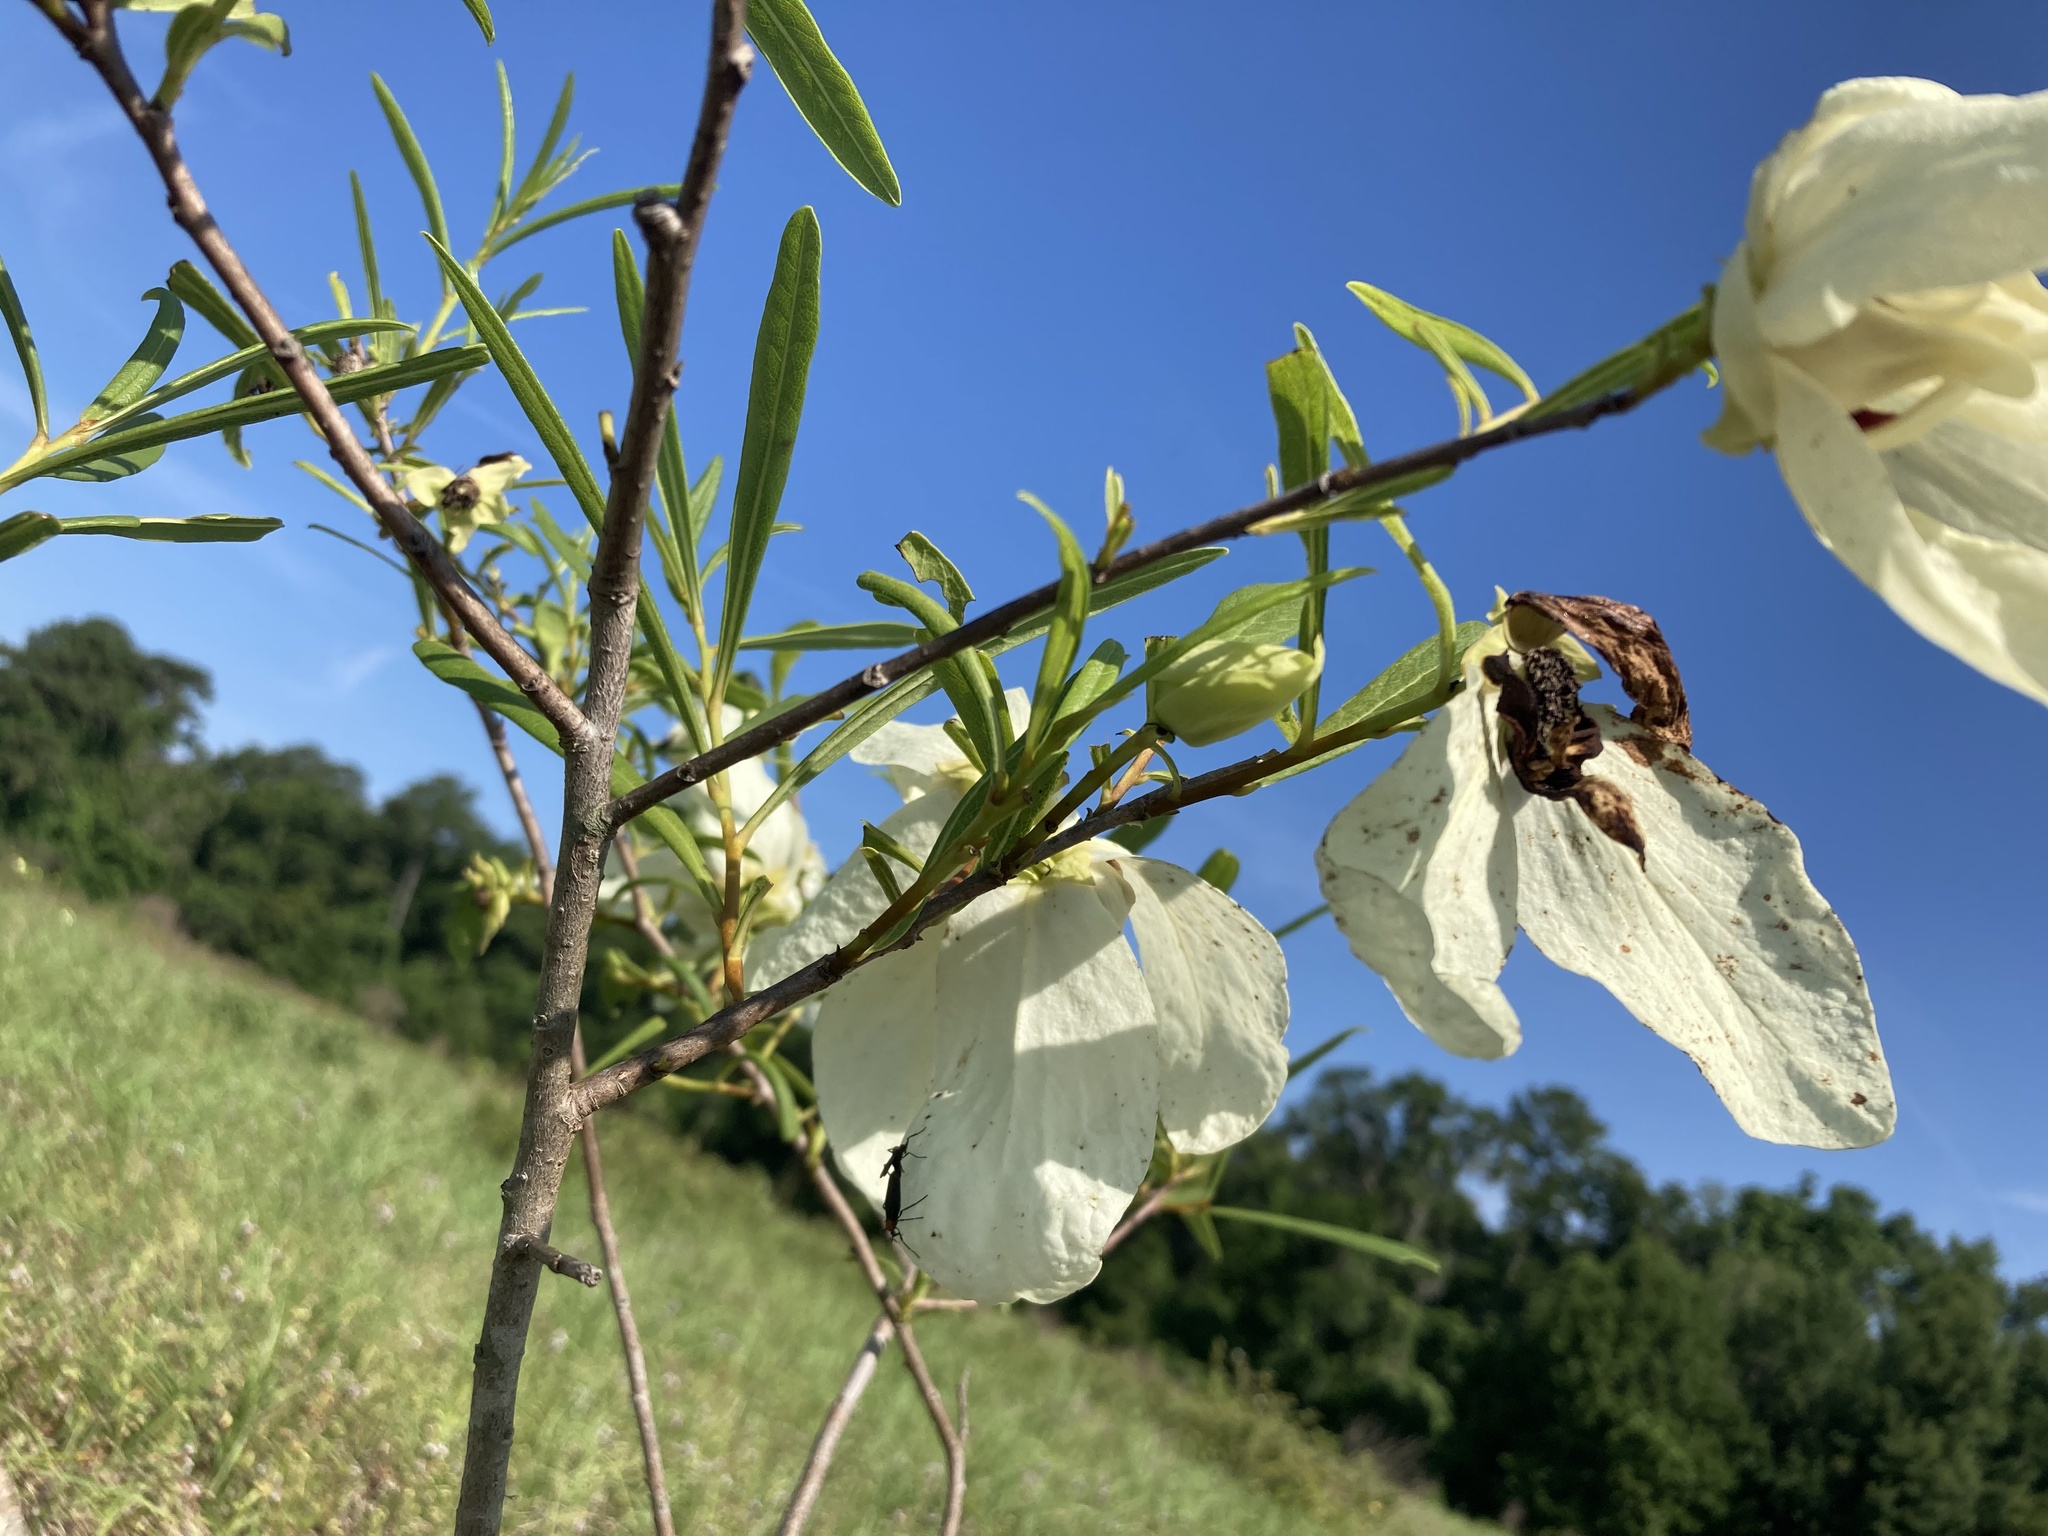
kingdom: Plantae
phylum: Tracheophyta
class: Magnoliopsida
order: Magnoliales
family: Annonaceae
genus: Asimina
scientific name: Asimina longifolia
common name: Polecatbush
